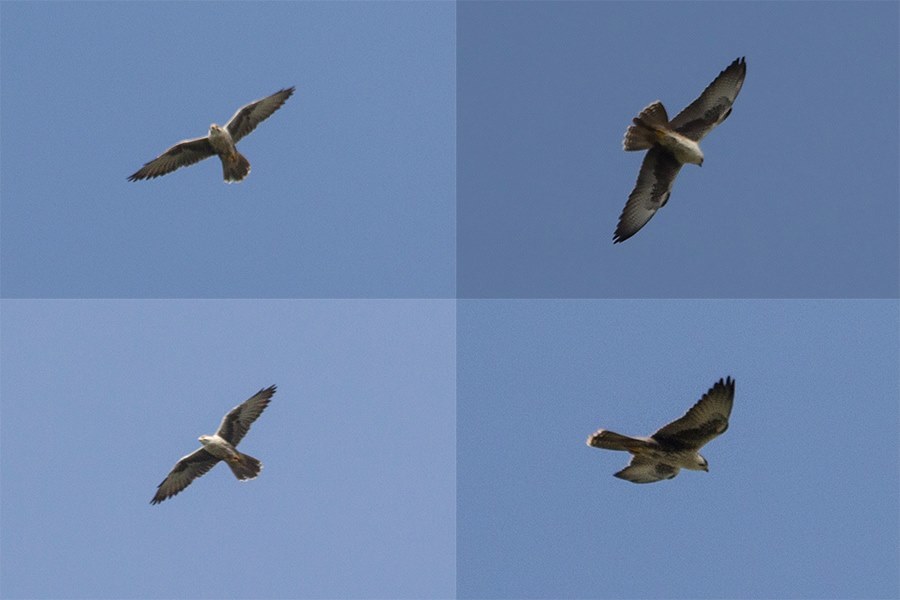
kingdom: Animalia
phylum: Chordata
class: Aves
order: Falconiformes
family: Falconidae
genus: Falco
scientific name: Falco jugger
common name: Laggar falcon
